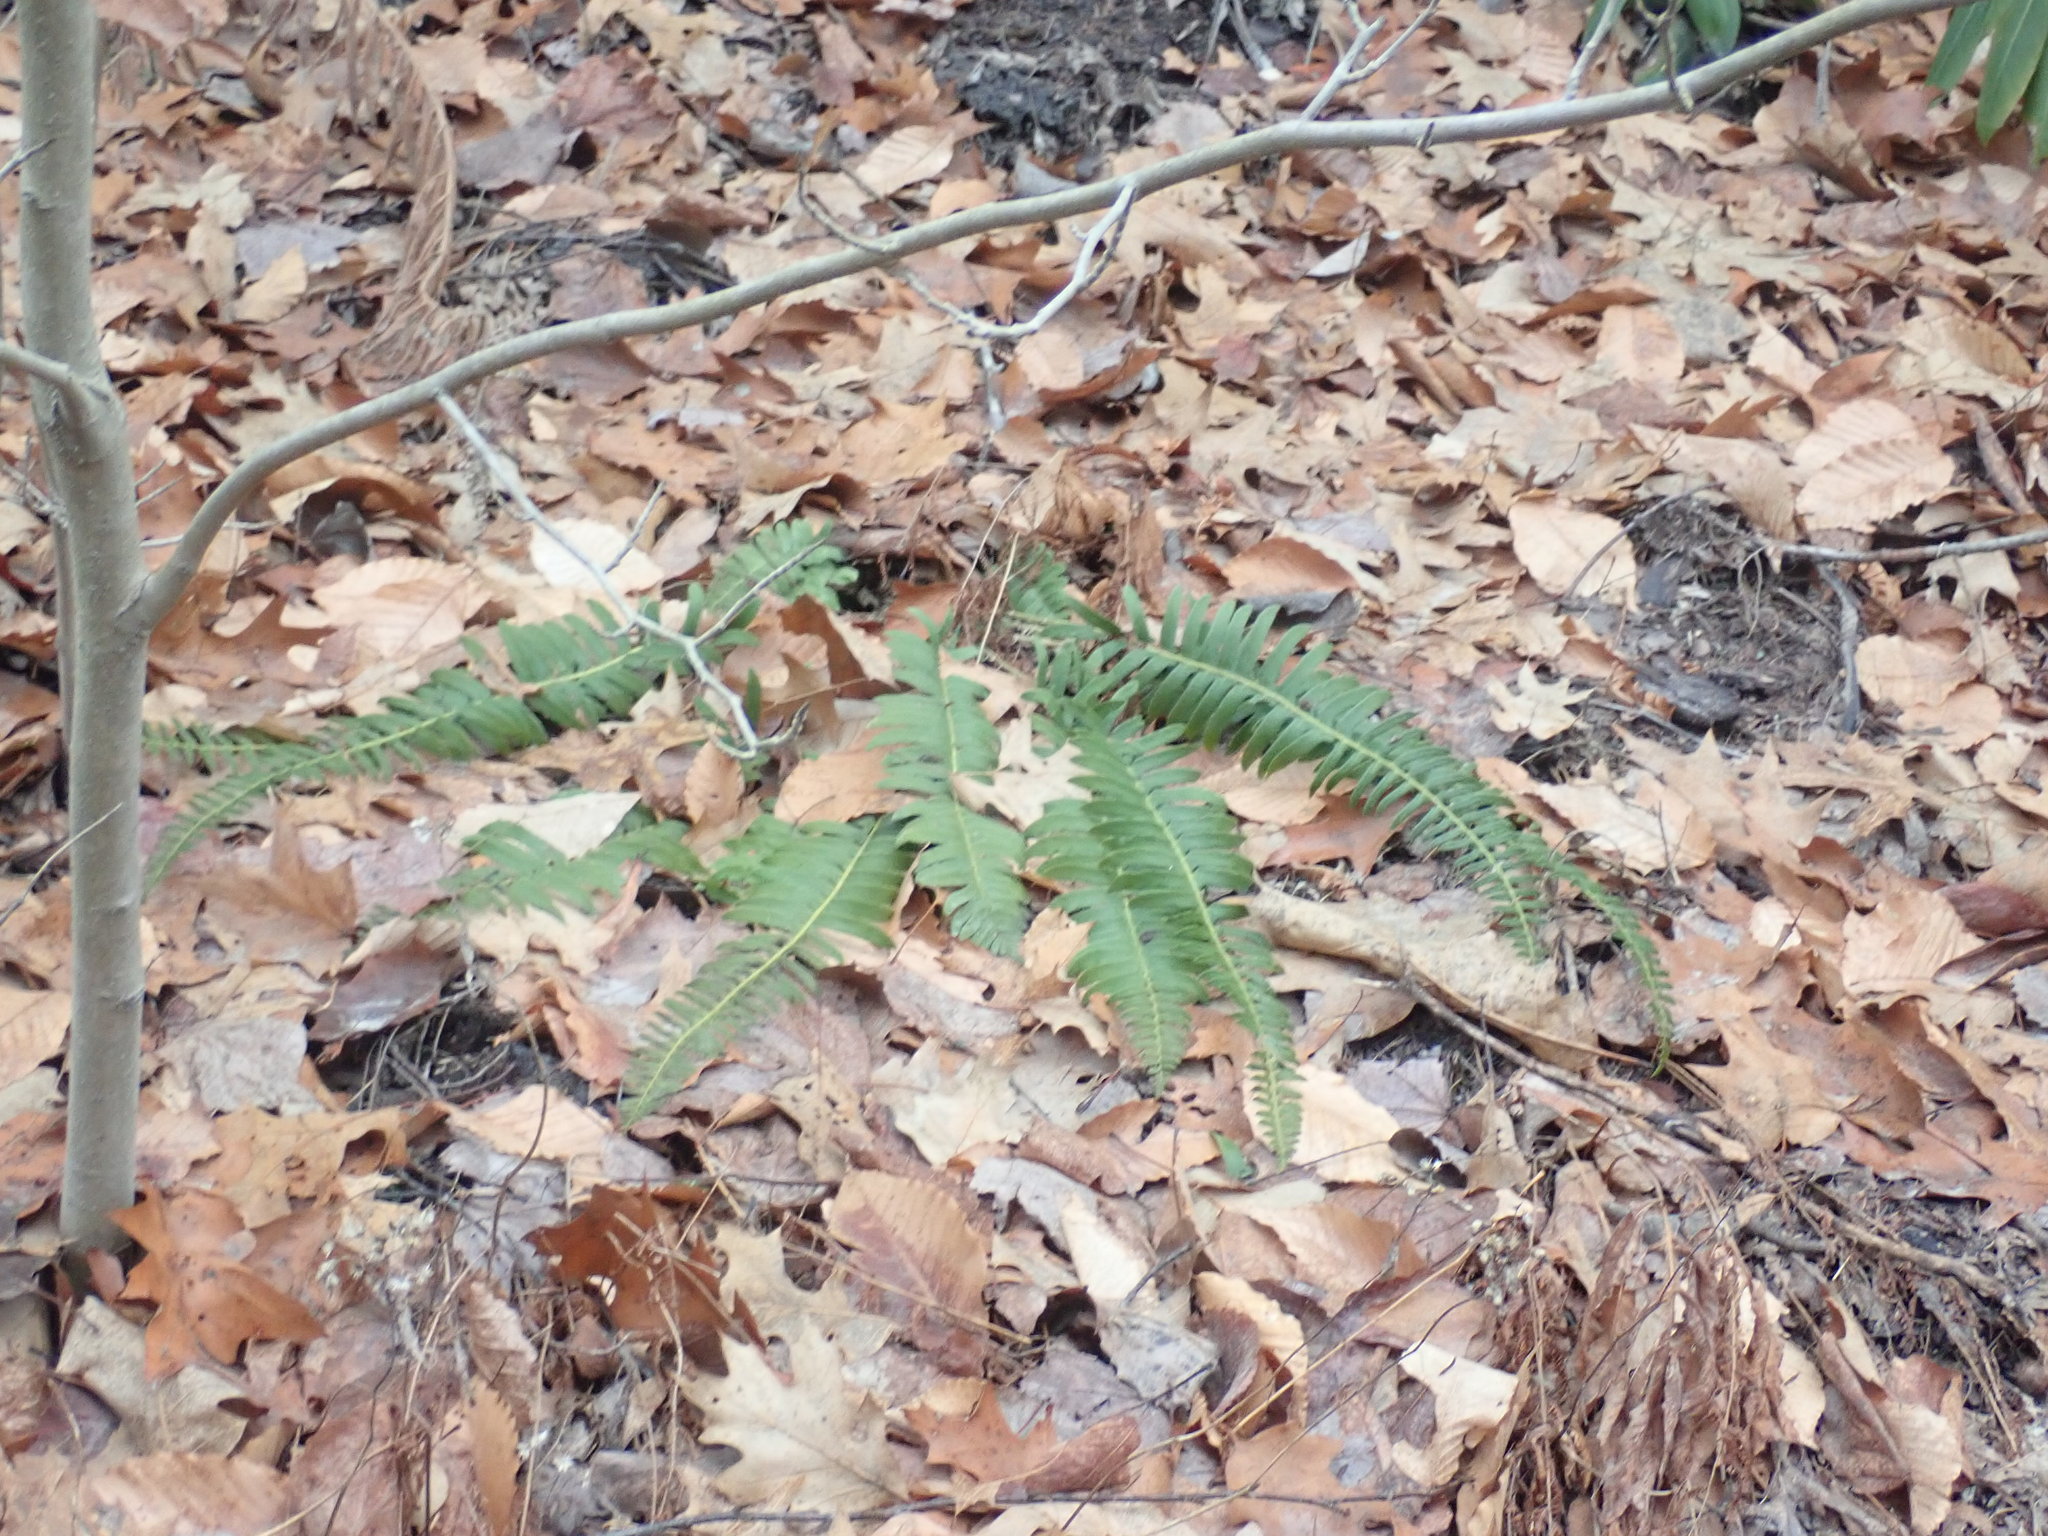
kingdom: Plantae
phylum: Tracheophyta
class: Polypodiopsida
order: Polypodiales
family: Dryopteridaceae
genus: Polystichum
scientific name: Polystichum acrostichoides
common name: Christmas fern
